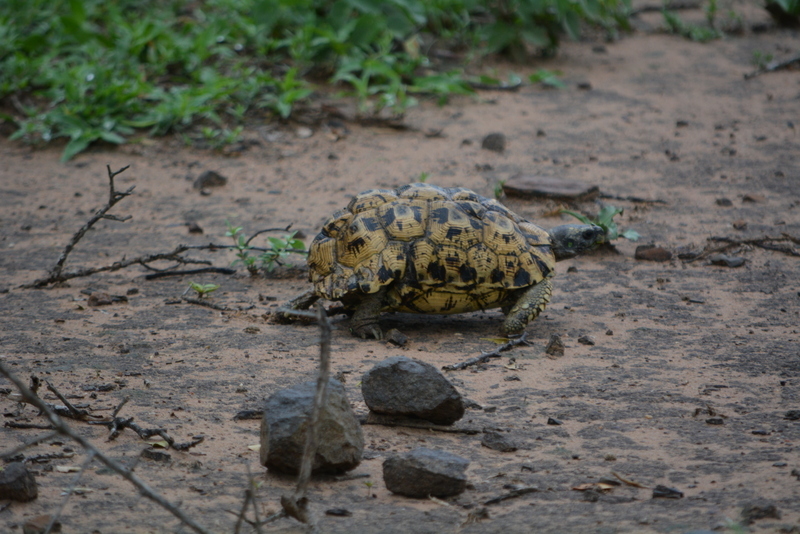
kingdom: Animalia
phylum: Chordata
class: Testudines
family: Testudinidae
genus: Kinixys
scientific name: Kinixys zombensis
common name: Southeastern hinge-back tortoise
